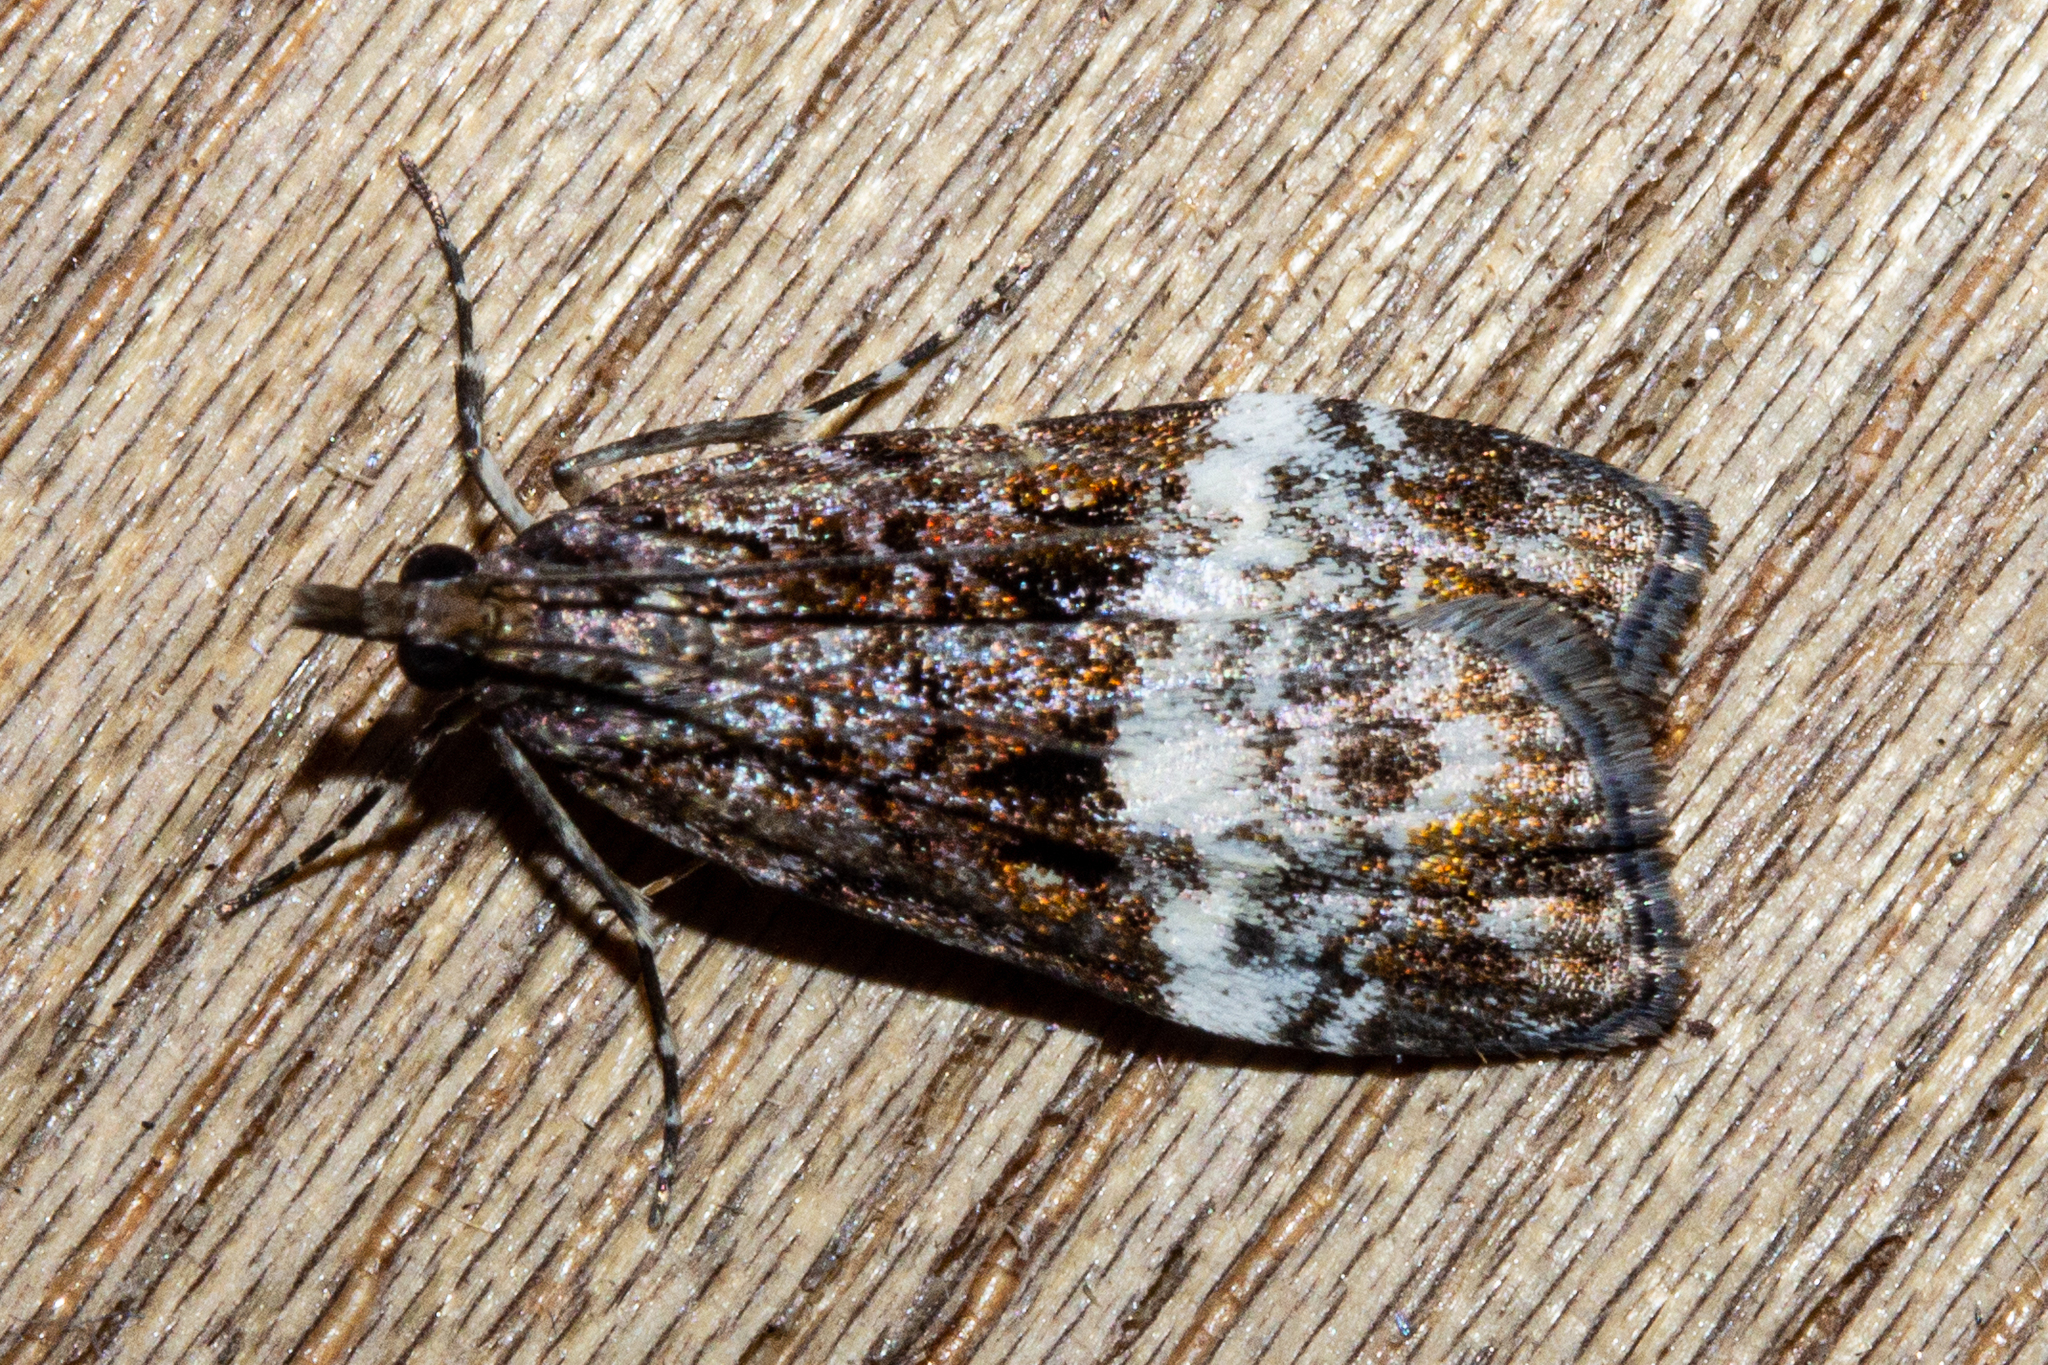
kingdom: Animalia
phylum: Arthropoda
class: Insecta
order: Lepidoptera
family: Crambidae
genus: Scoparia
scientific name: Scoparia minusculalis
